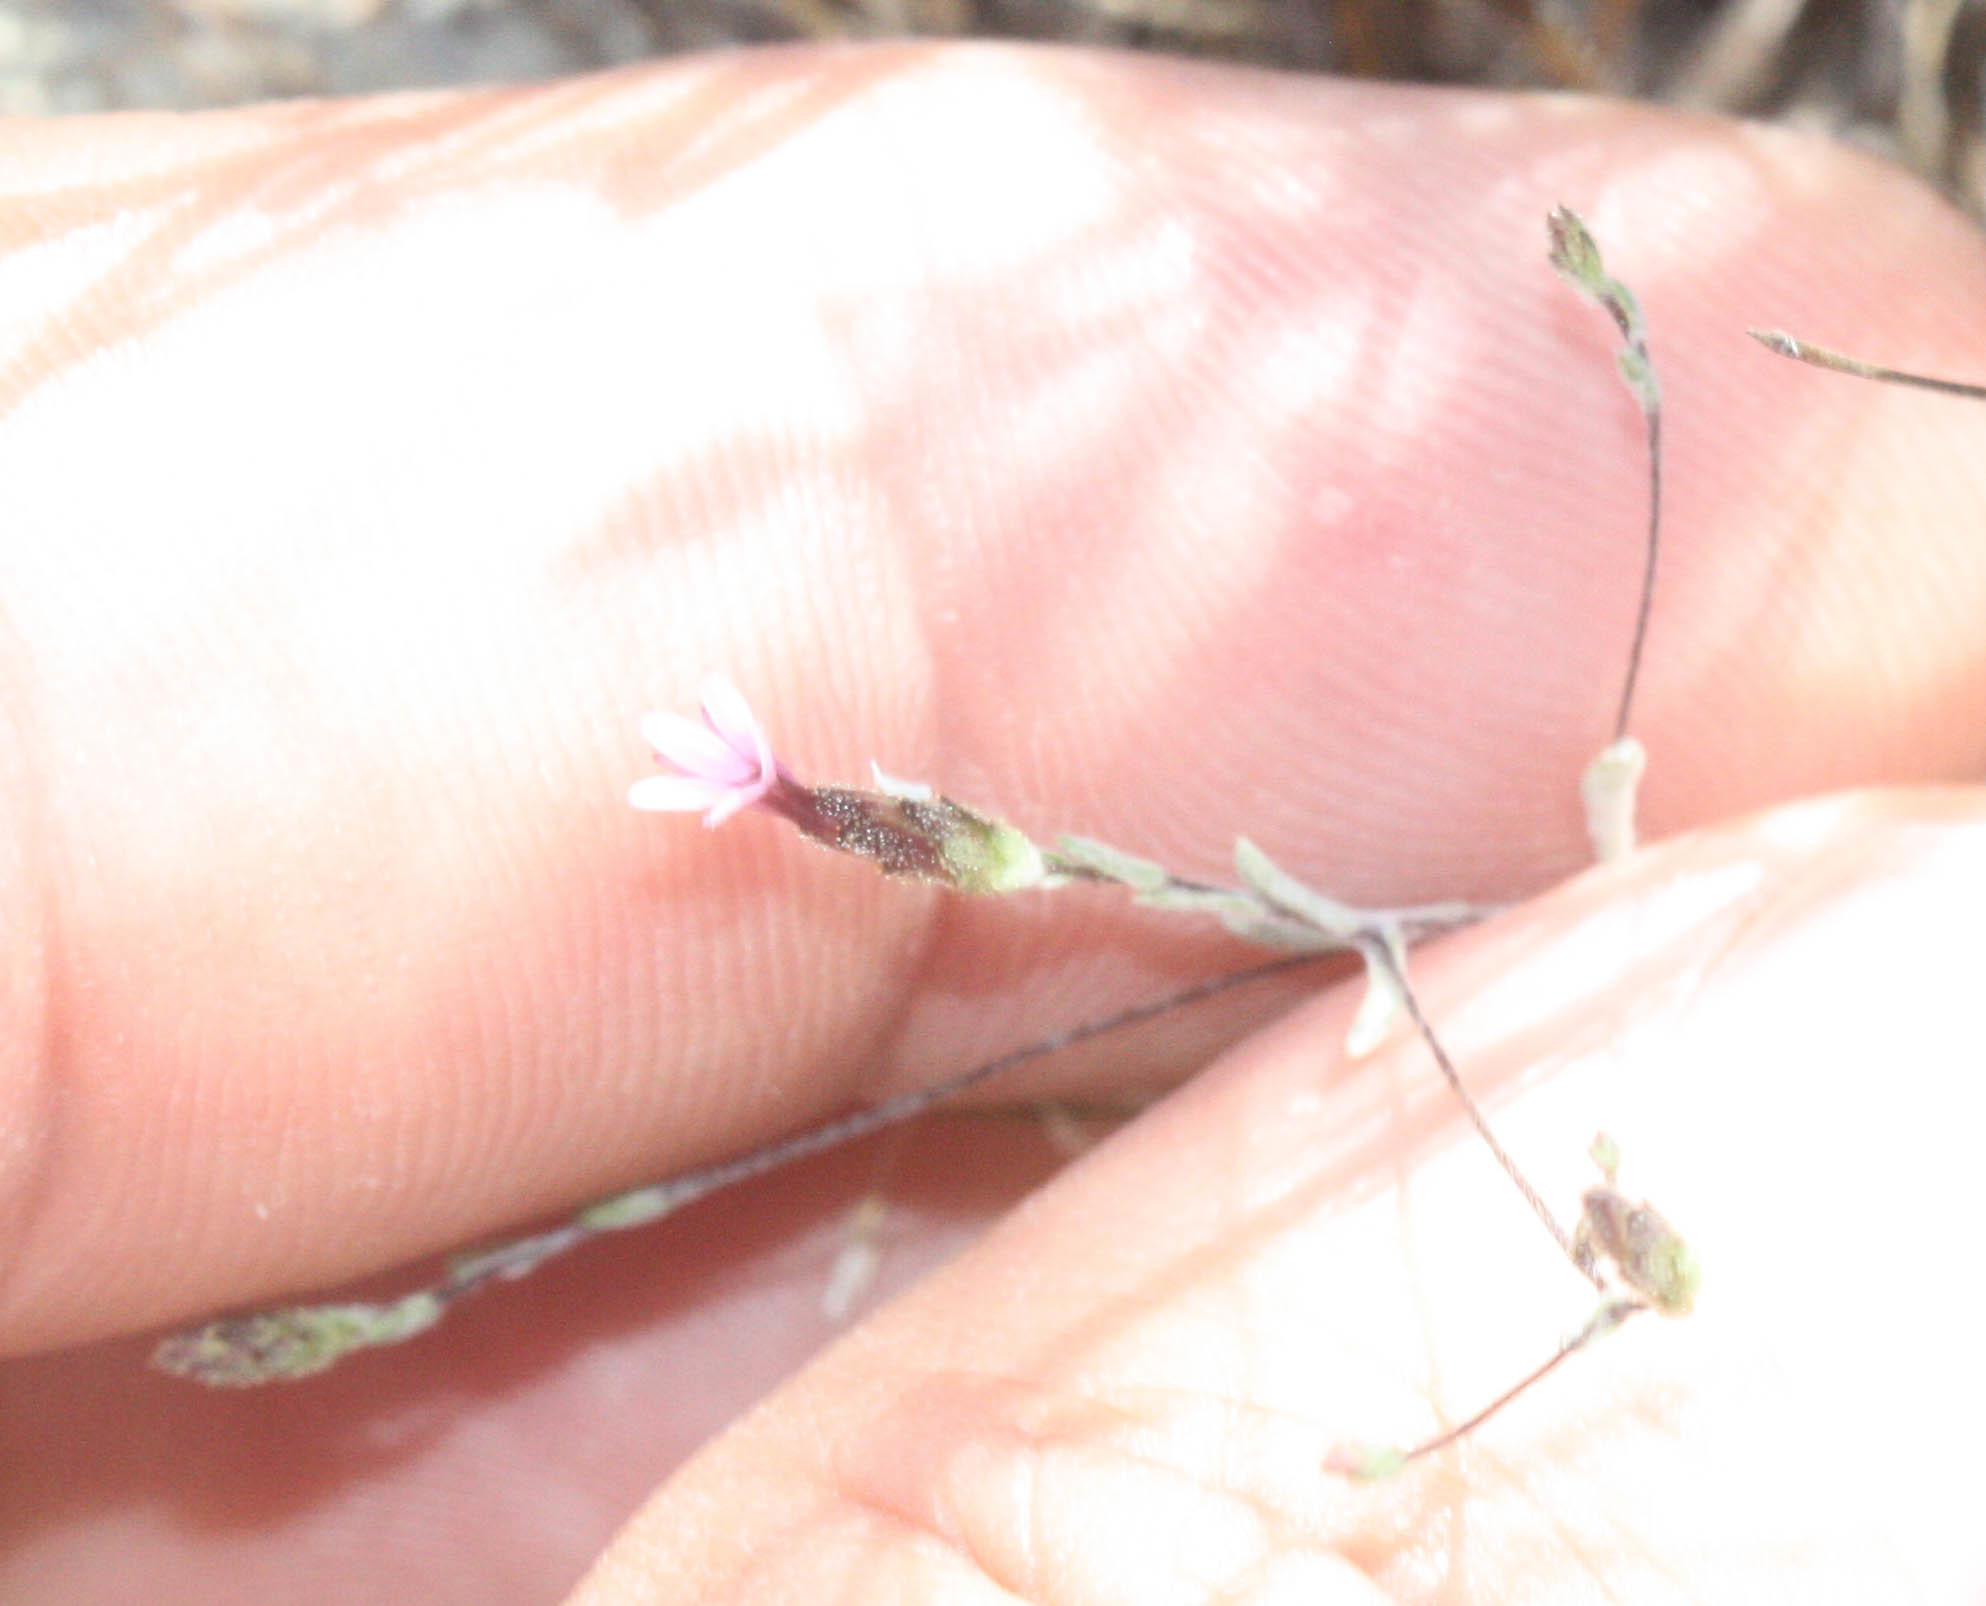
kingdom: Plantae
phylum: Tracheophyta
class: Magnoliopsida
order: Asterales
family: Asteraceae
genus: Lessingia
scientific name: Lessingia micradenia
